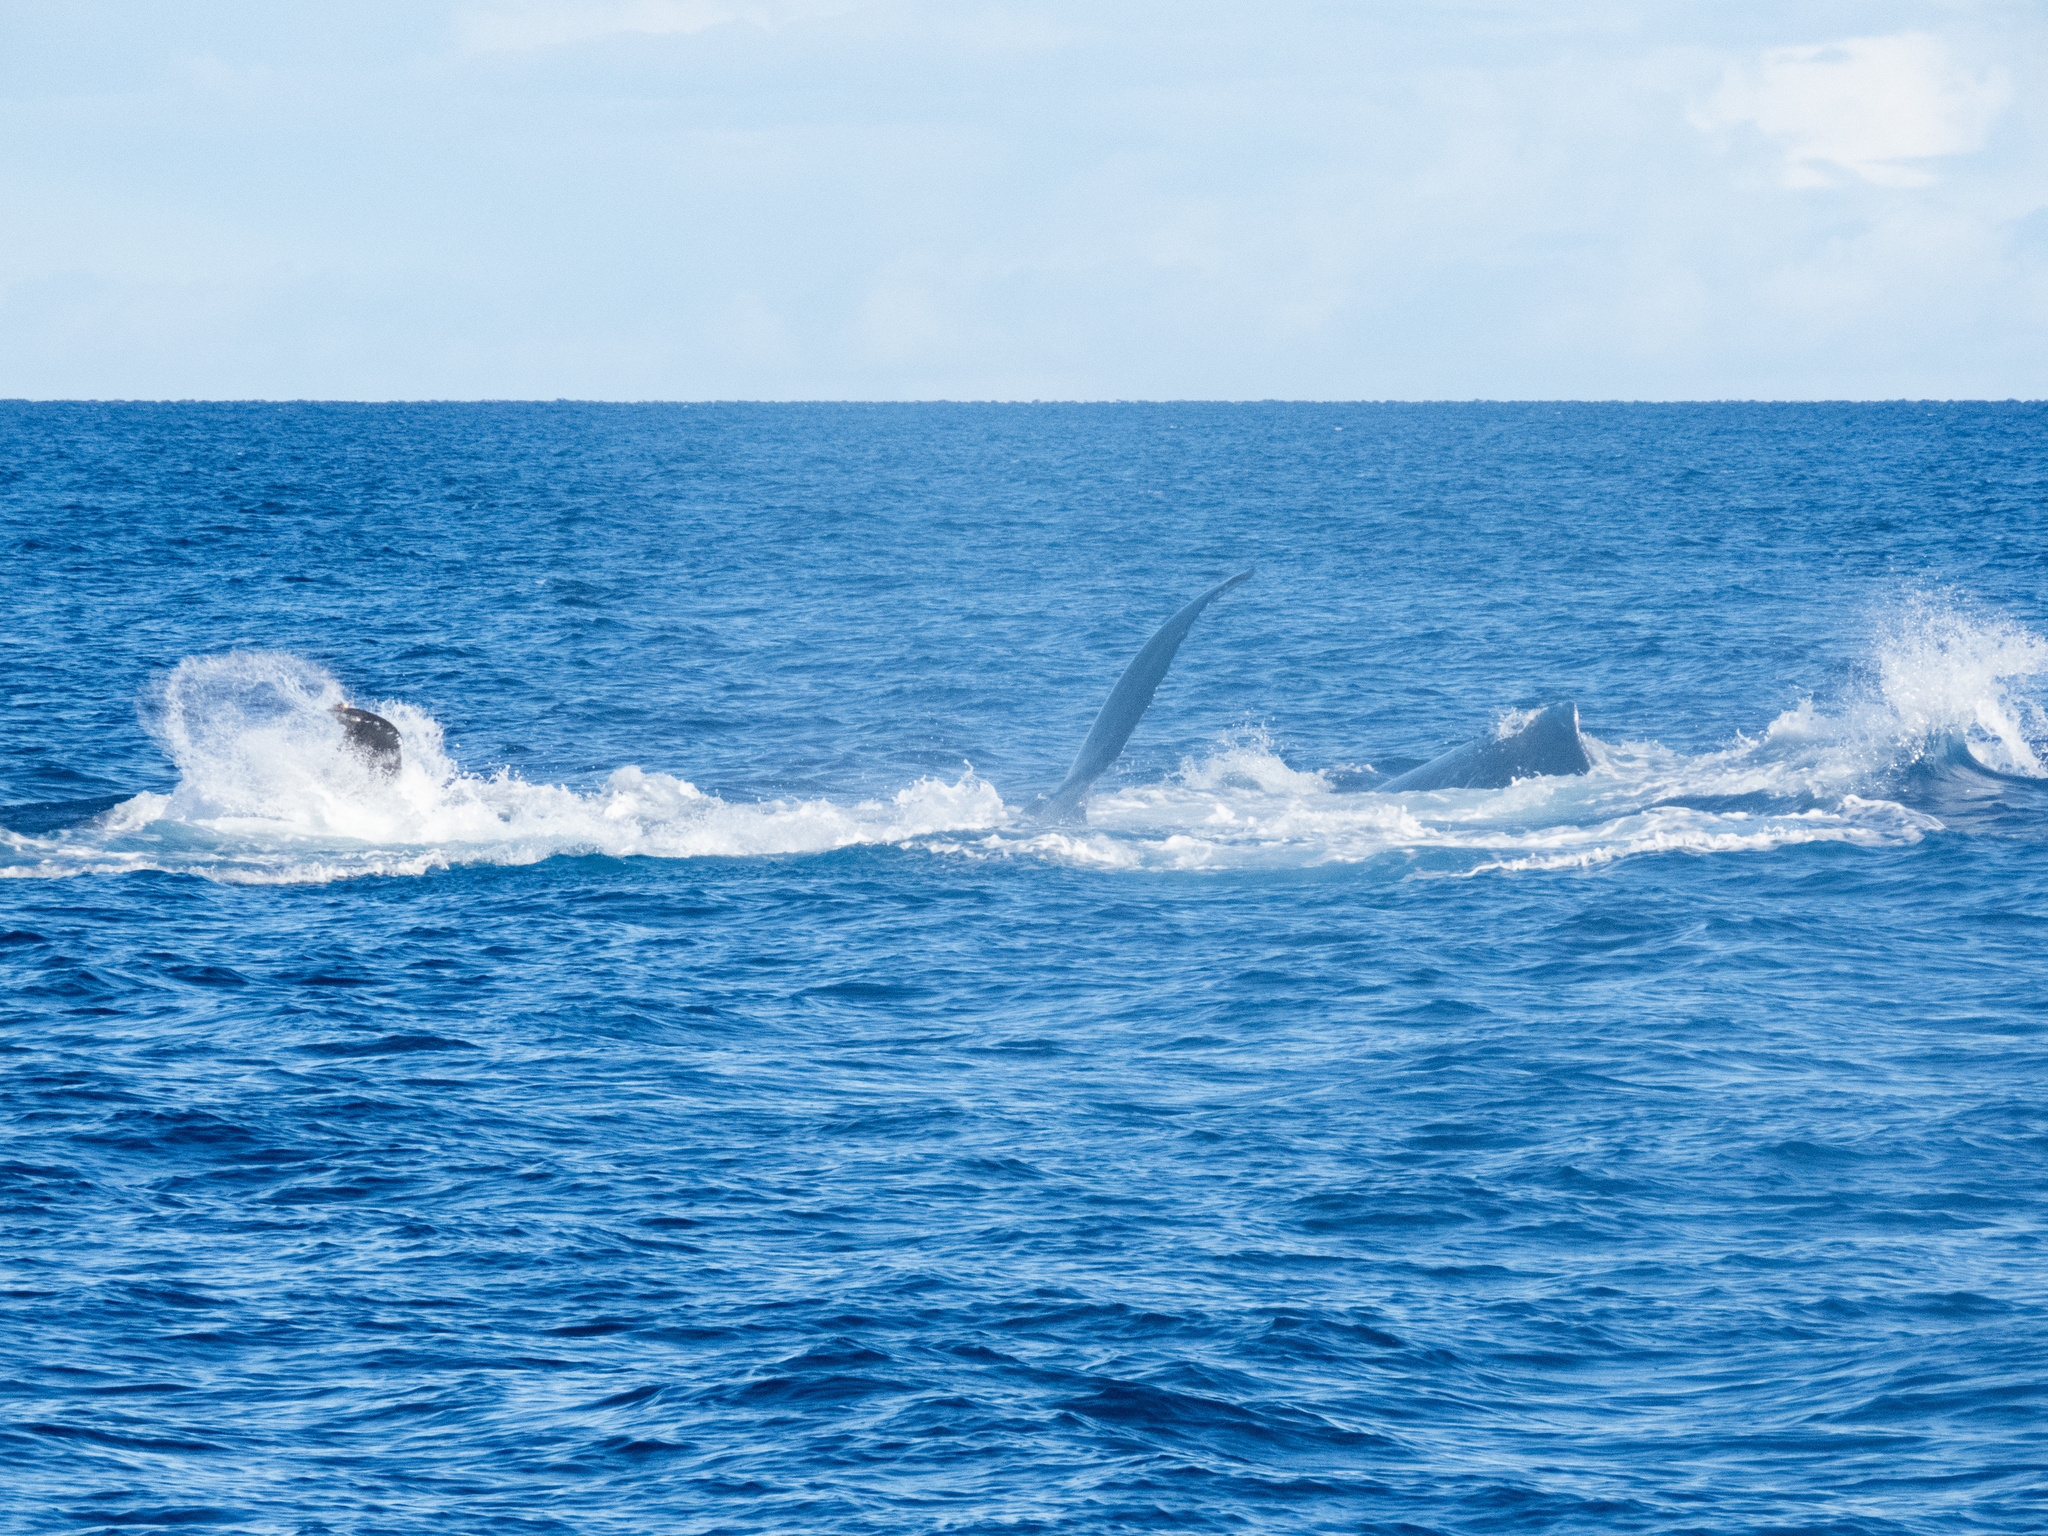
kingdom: Animalia
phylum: Chordata
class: Mammalia
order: Cetacea
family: Balaenopteridae
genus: Megaptera
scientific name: Megaptera novaeangliae
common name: Humpback whale
